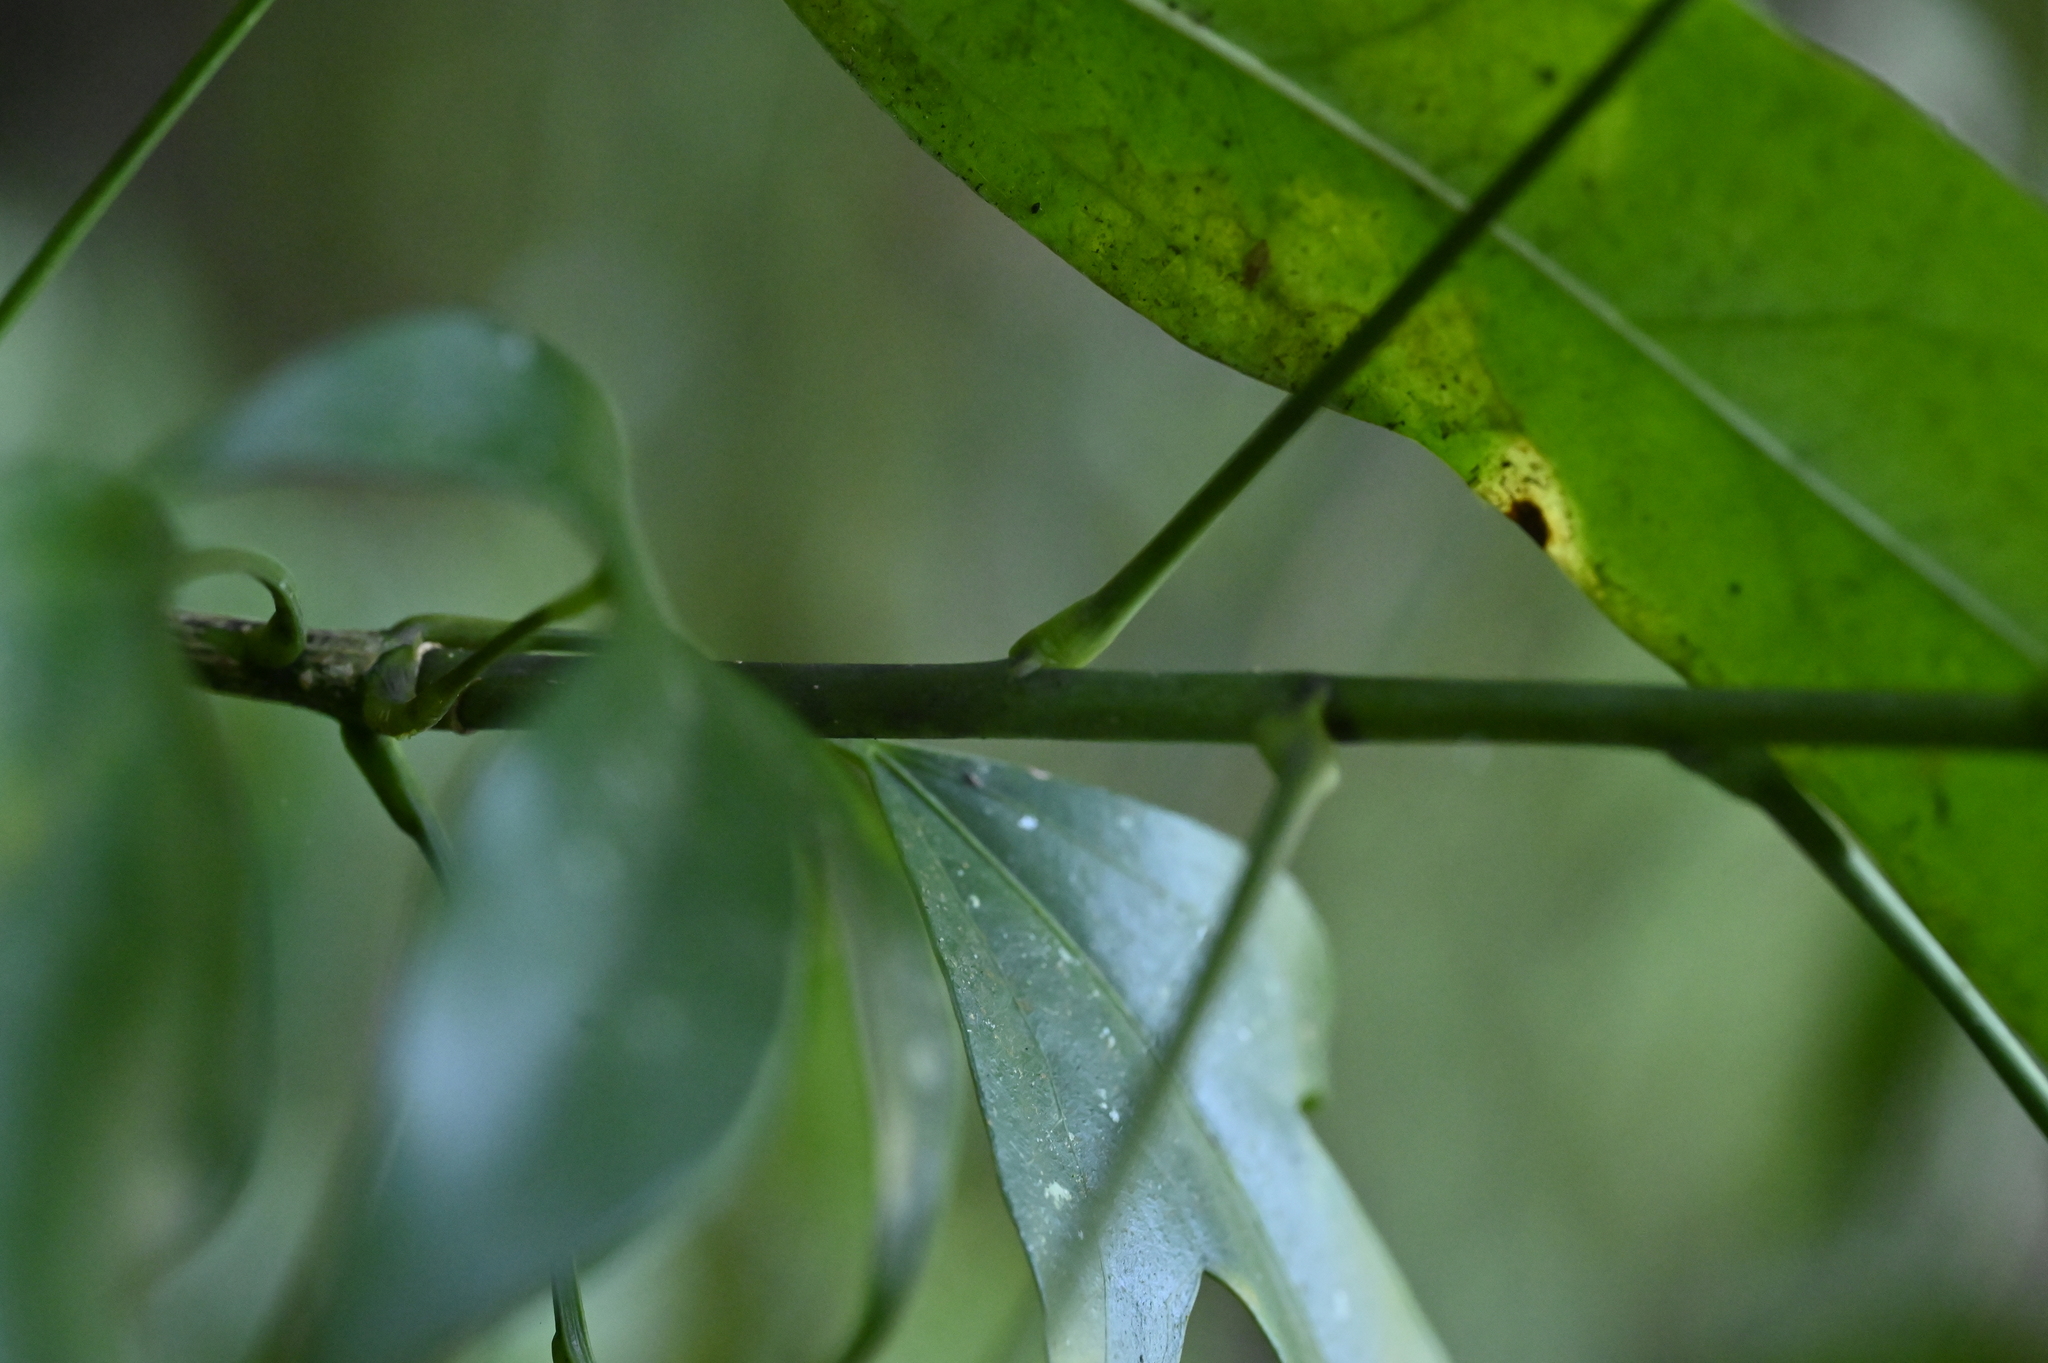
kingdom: Plantae
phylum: Tracheophyta
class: Magnoliopsida
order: Apiales
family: Araliaceae
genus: Dendropanax
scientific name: Dendropanax dentiger
